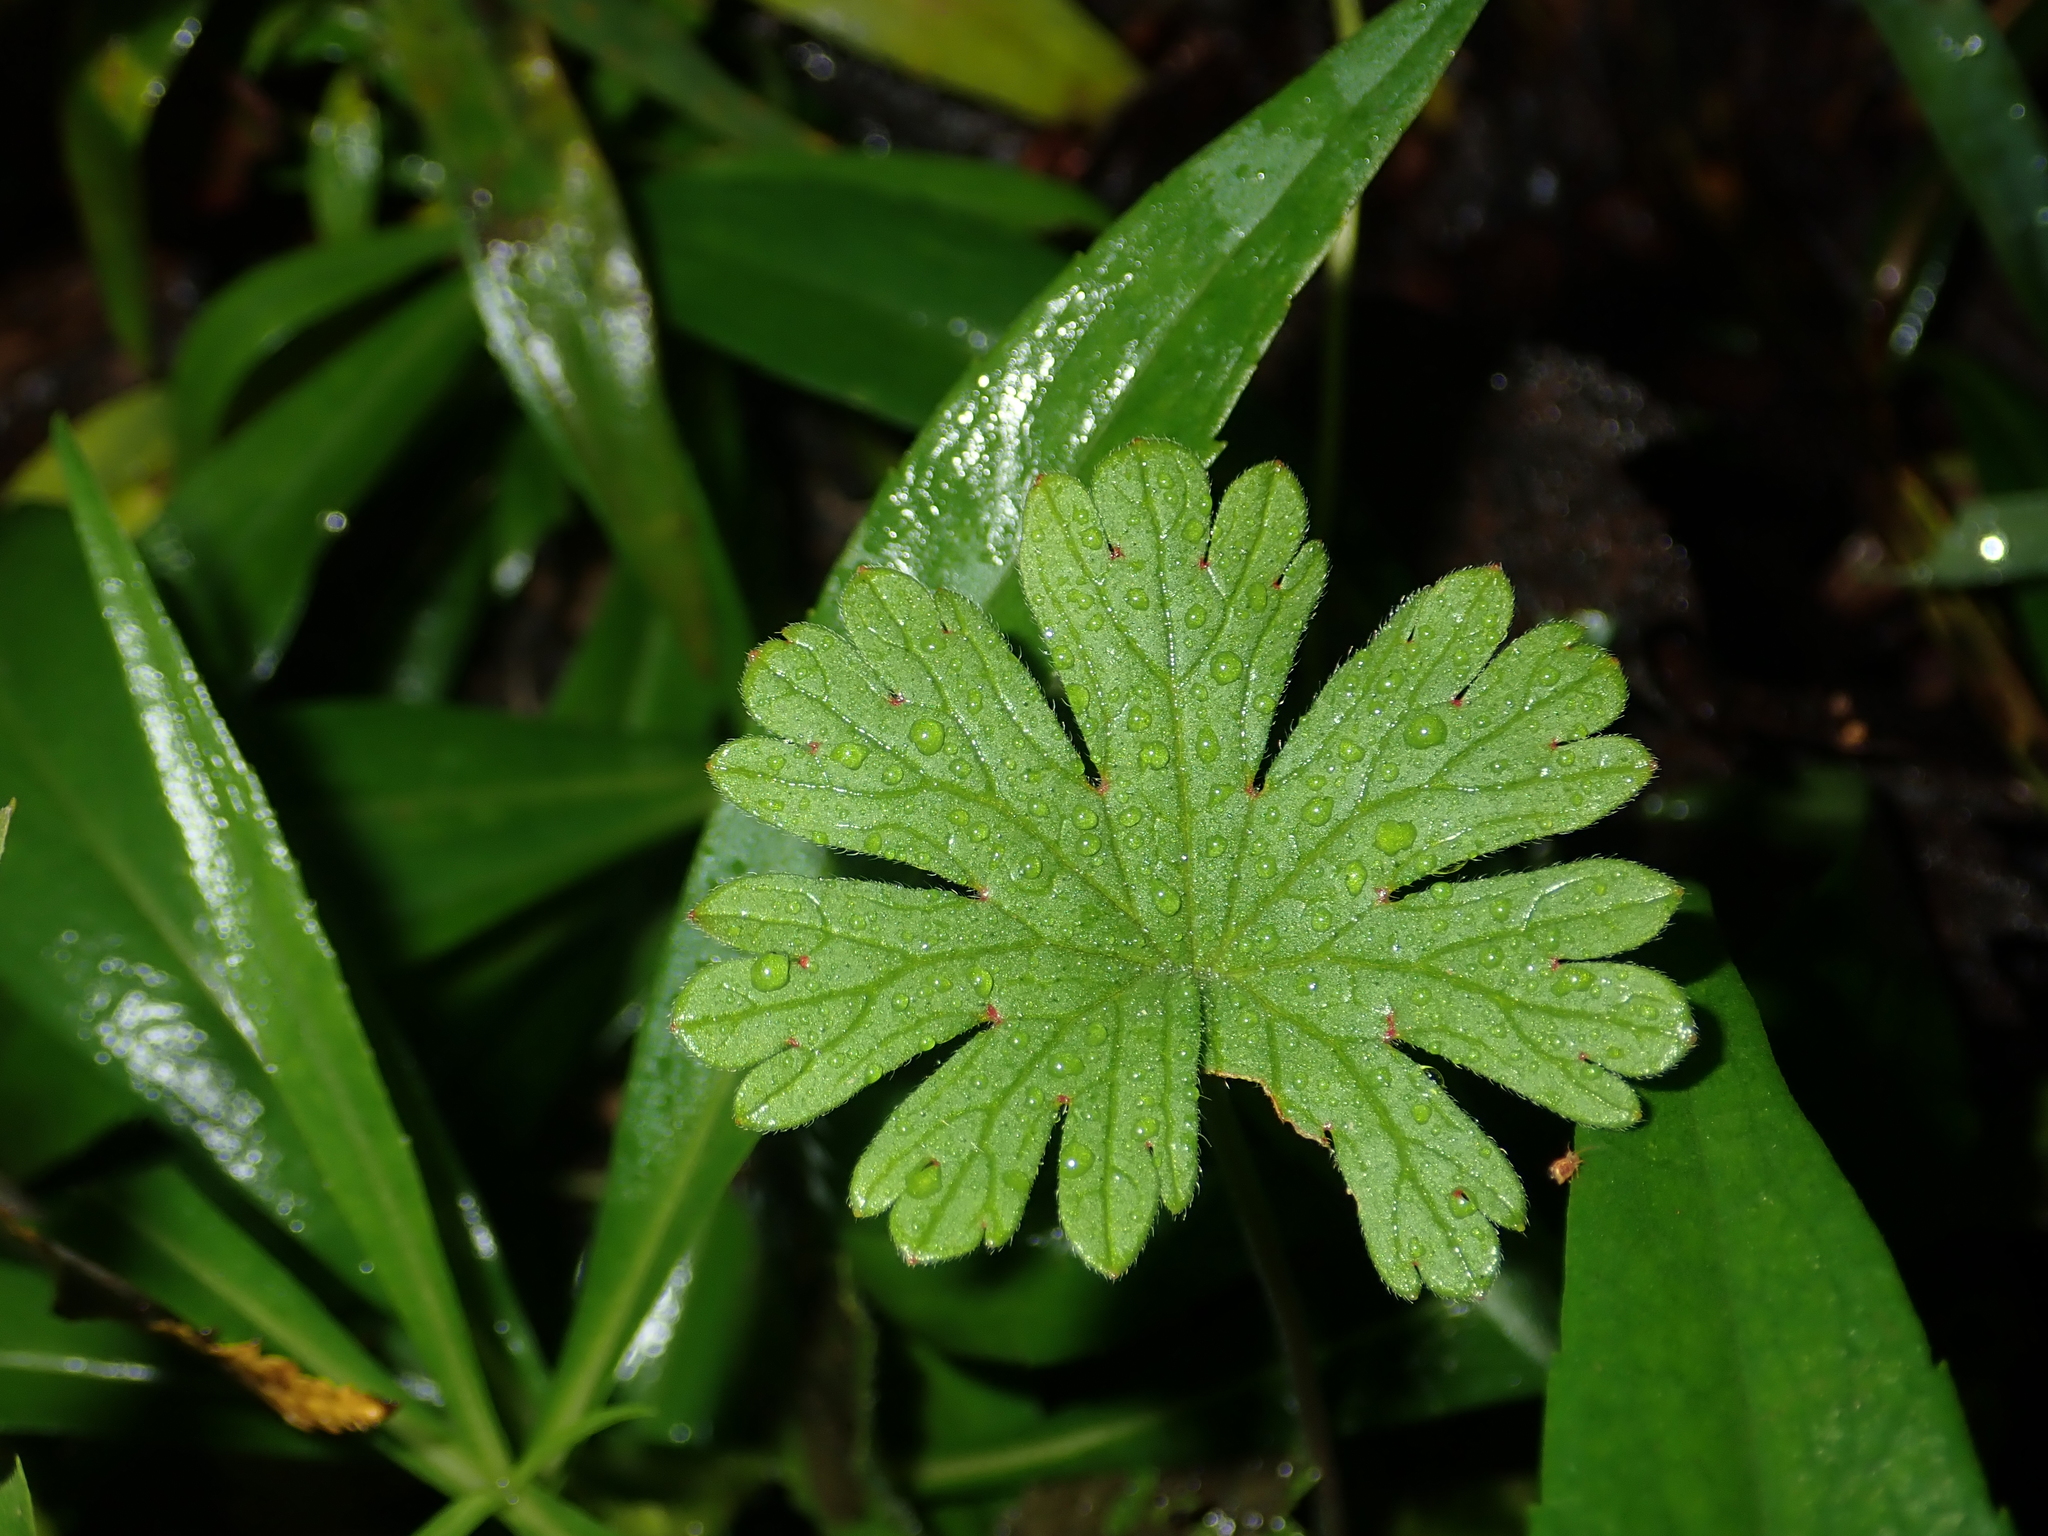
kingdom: Plantae
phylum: Tracheophyta
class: Magnoliopsida
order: Geraniales
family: Geraniaceae
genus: Geranium
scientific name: Geranium molle
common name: Dove's-foot crane's-bill
